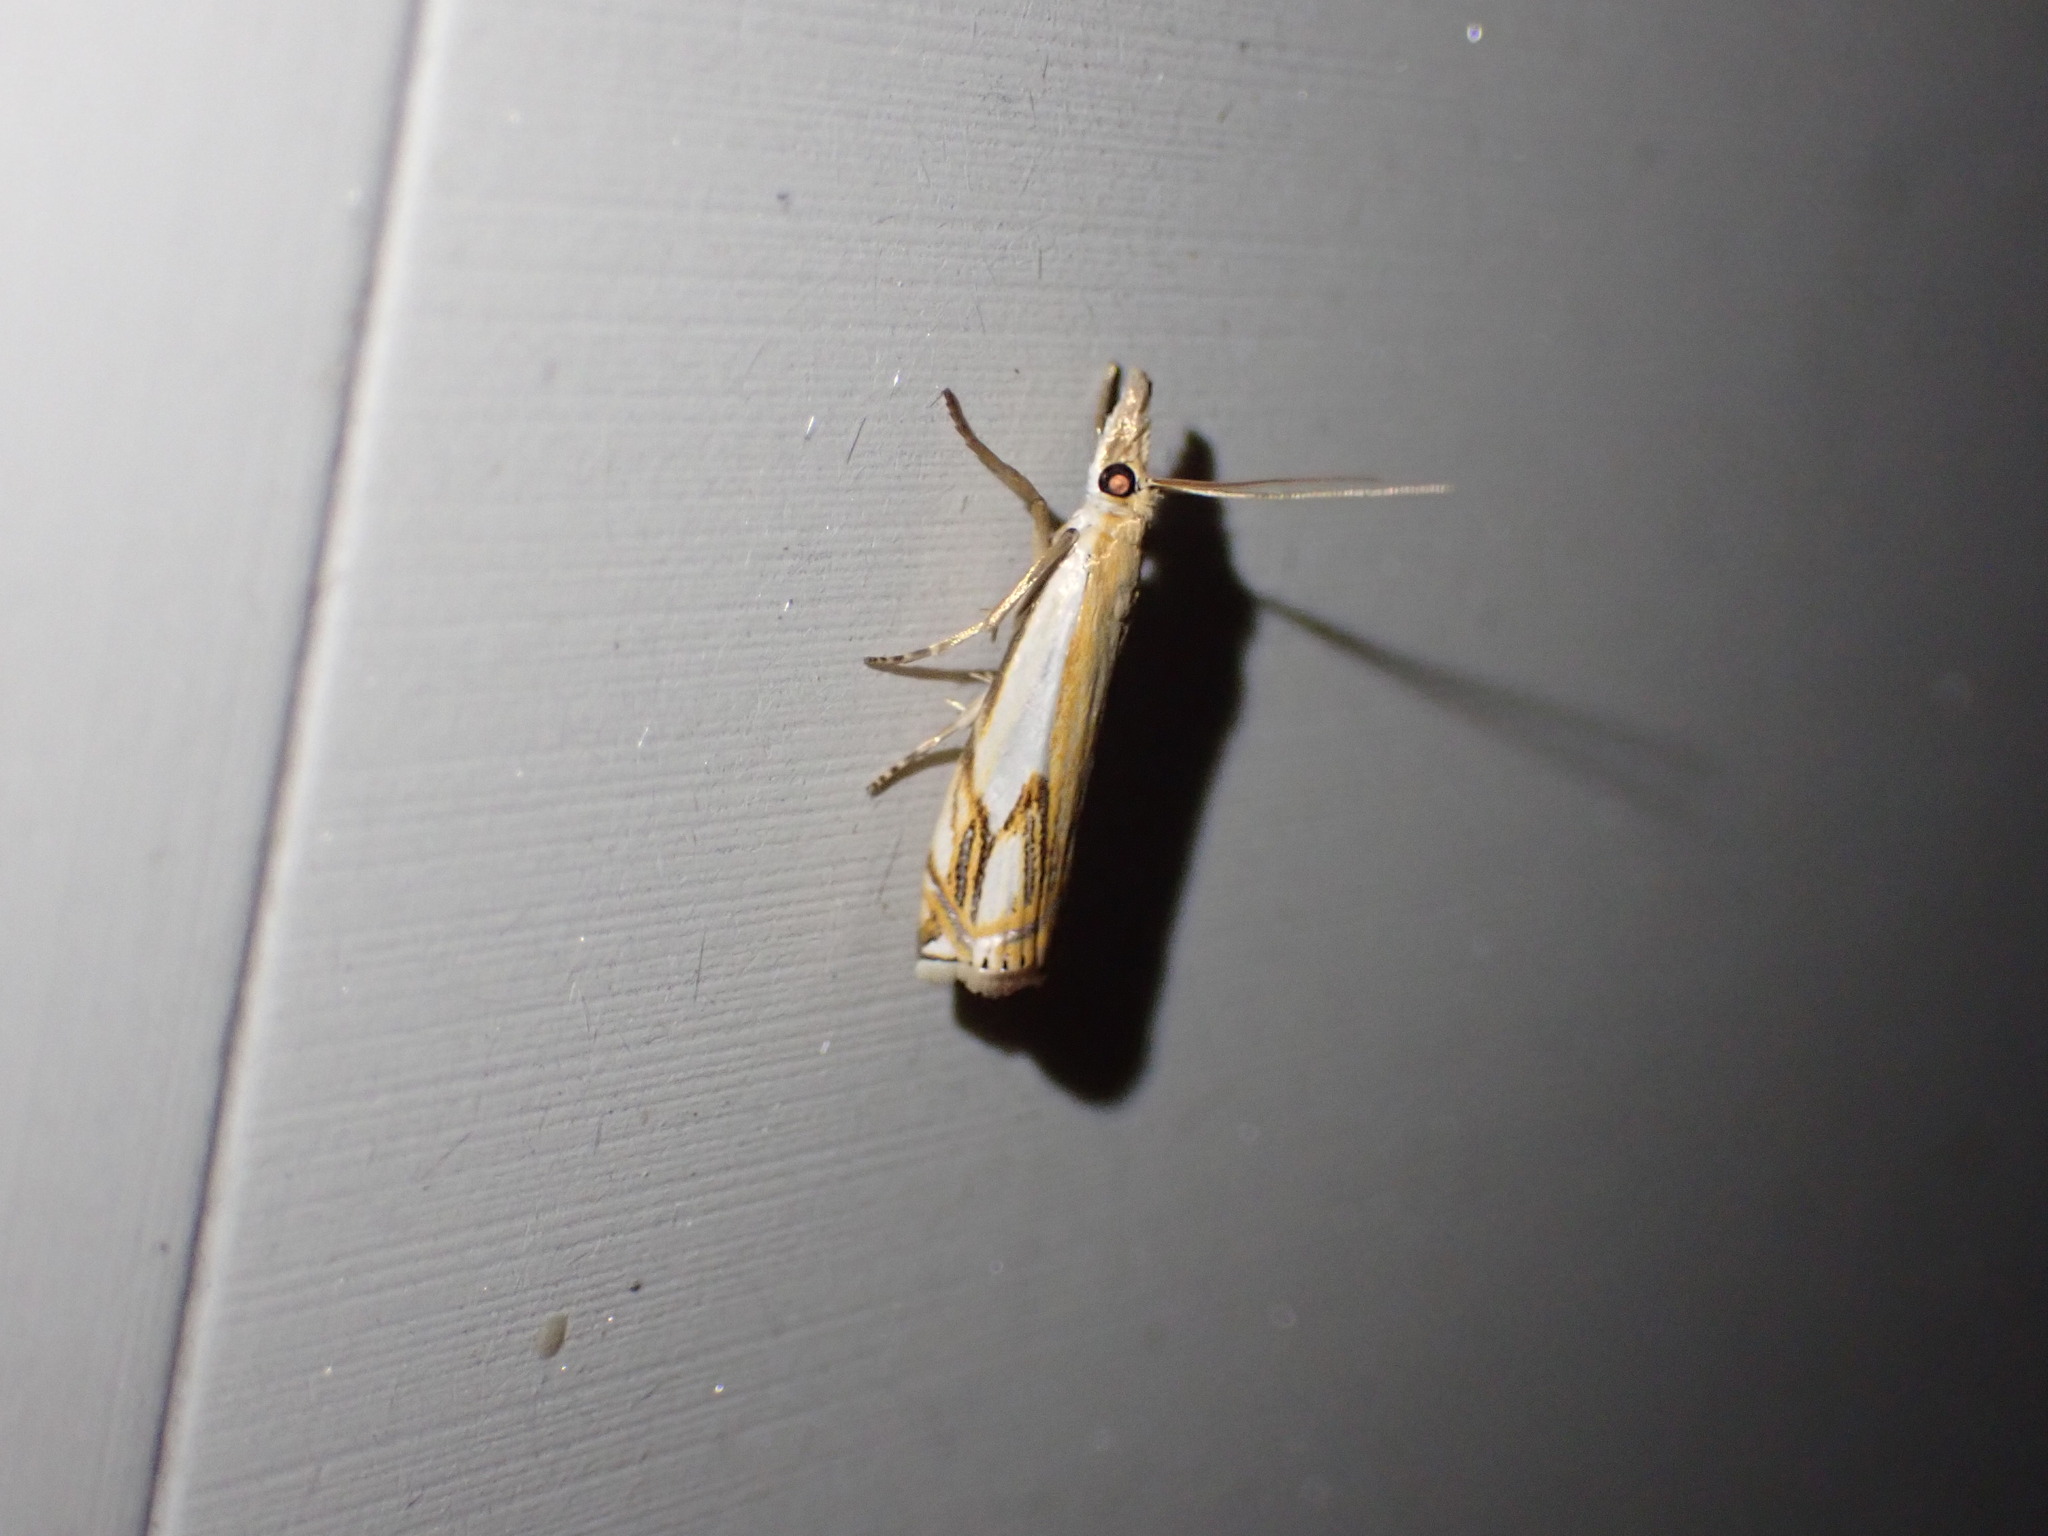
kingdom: Animalia
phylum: Arthropoda
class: Insecta
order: Lepidoptera
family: Crambidae
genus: Crambus
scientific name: Crambus agitatellus
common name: Double-banded grass-veneer
